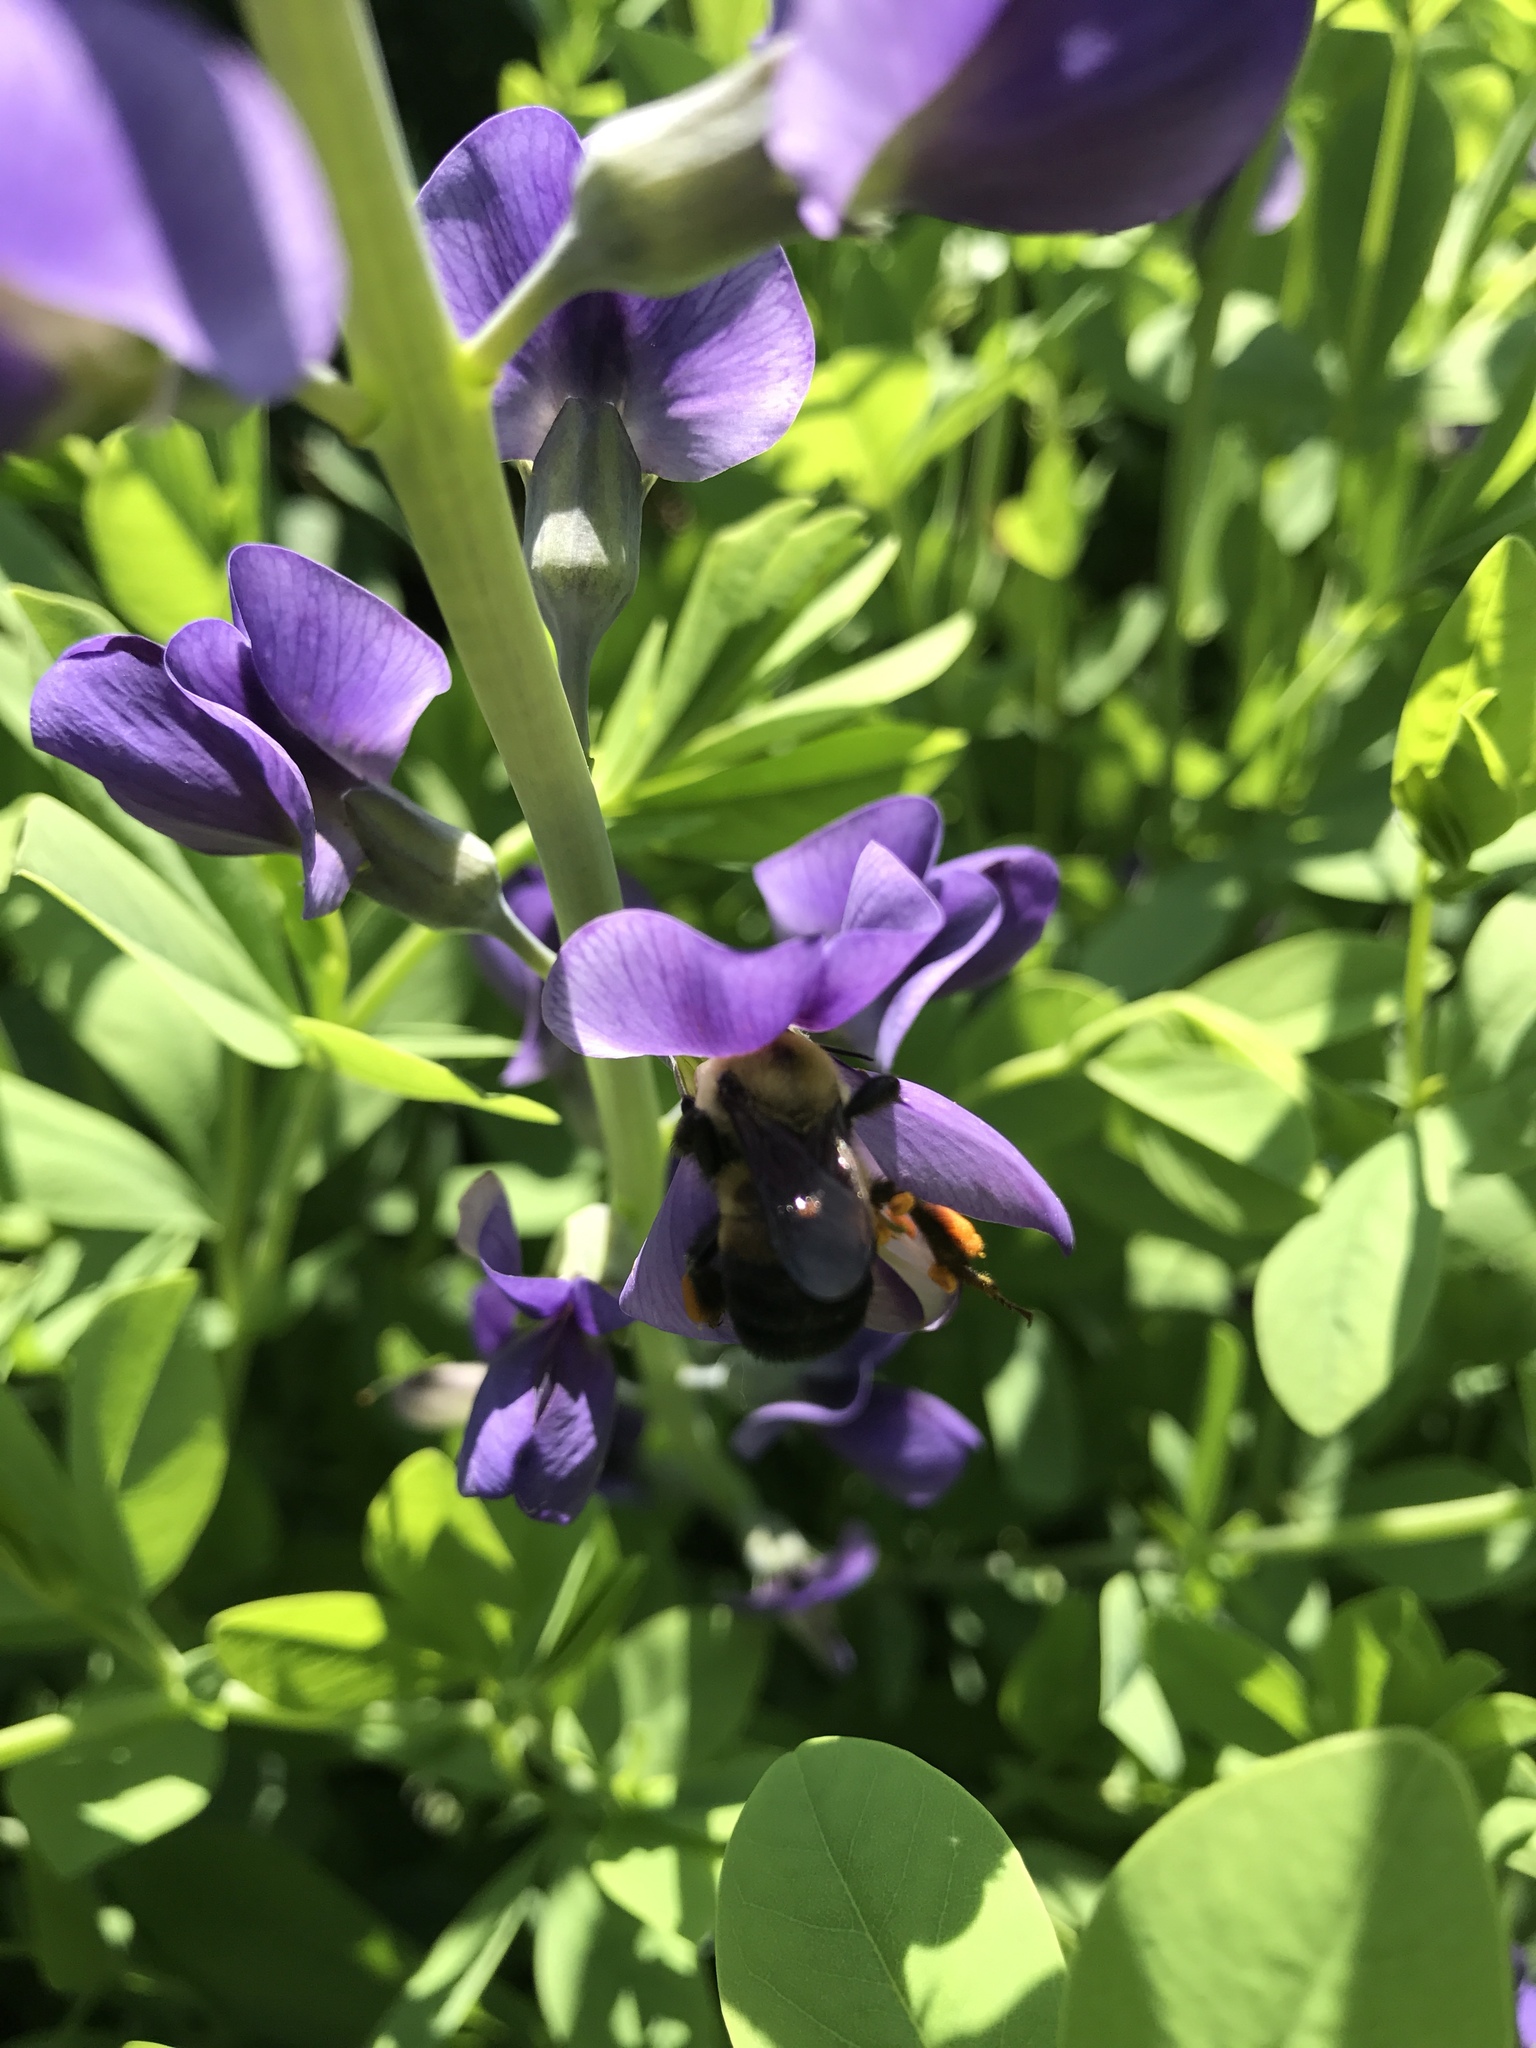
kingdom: Plantae
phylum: Tracheophyta
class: Magnoliopsida
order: Fabales
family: Fabaceae
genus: Baptisia
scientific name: Baptisia australis
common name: Blue false indigo
